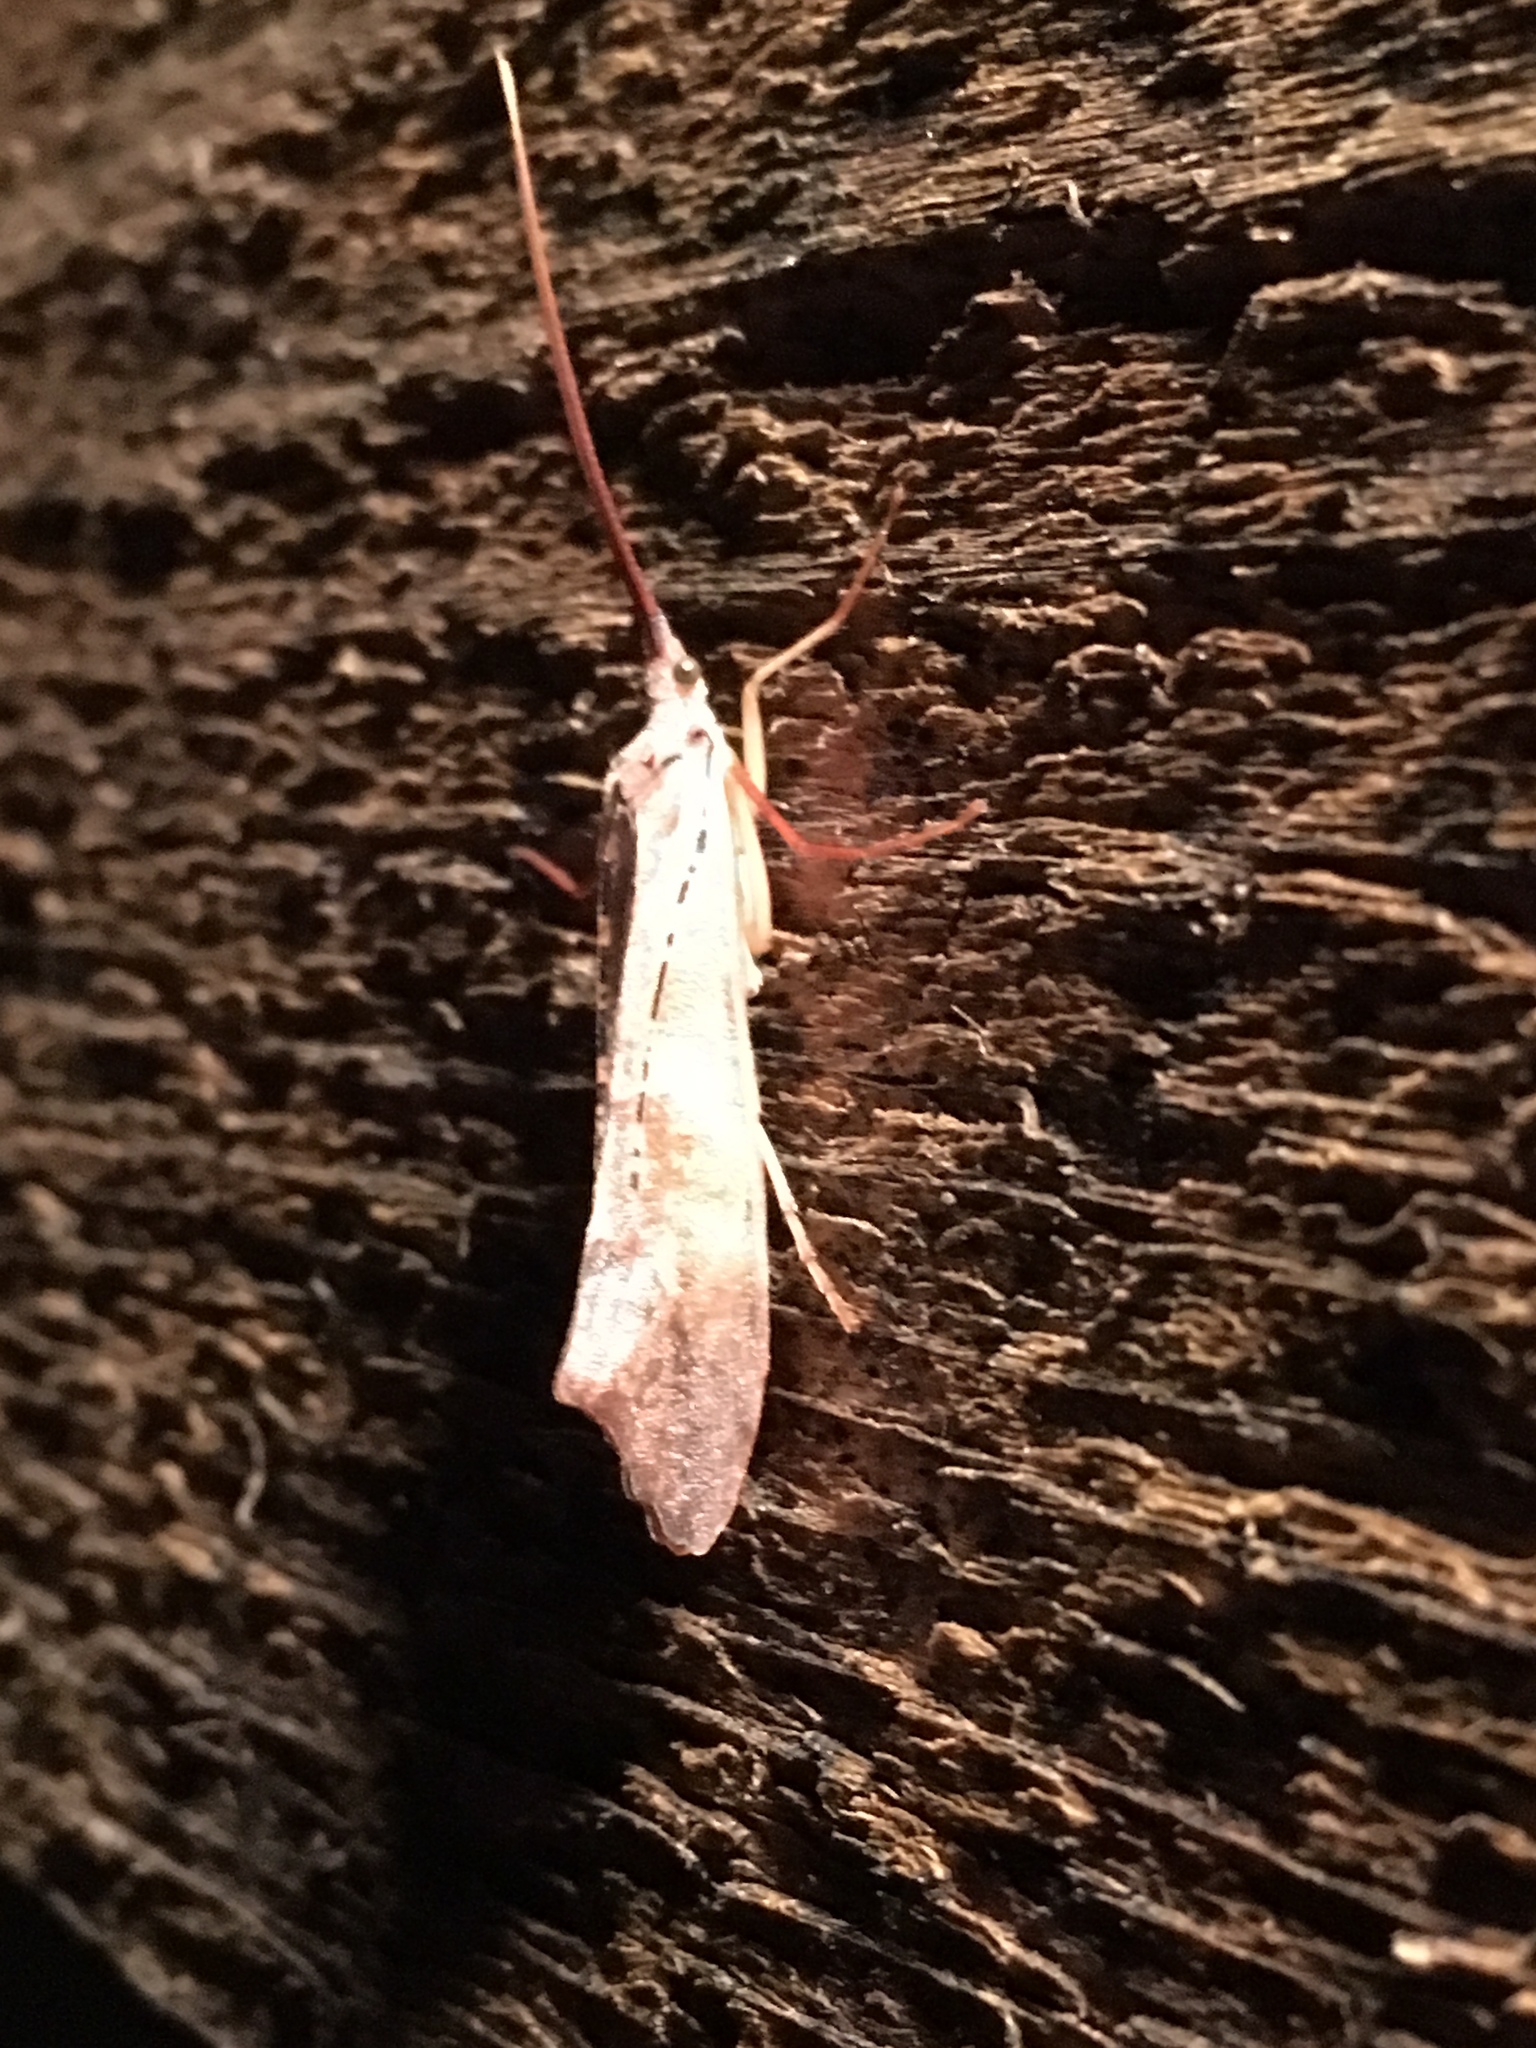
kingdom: Animalia
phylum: Arthropoda
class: Insecta
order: Trichoptera
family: Limnephilidae
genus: Nemotaulius
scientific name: Nemotaulius hostilis
